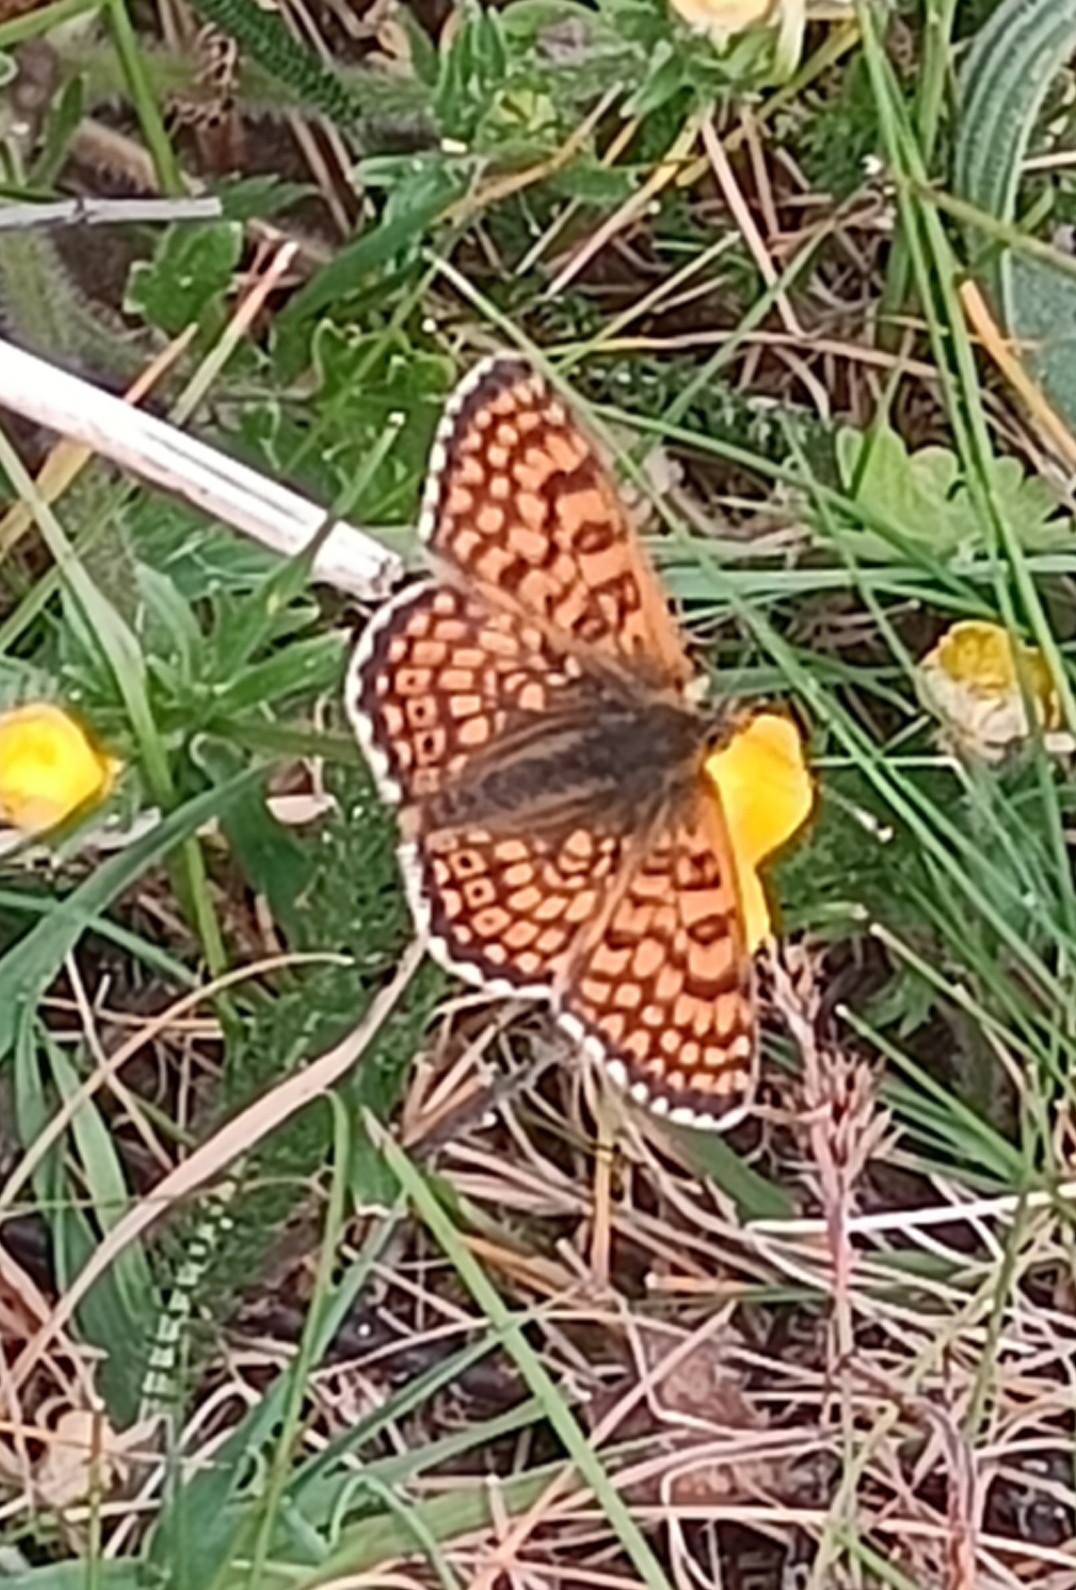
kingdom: Animalia
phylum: Arthropoda
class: Insecta
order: Lepidoptera
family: Nymphalidae
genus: Melitaea
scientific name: Melitaea cinxia
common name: Glanville fritillary
